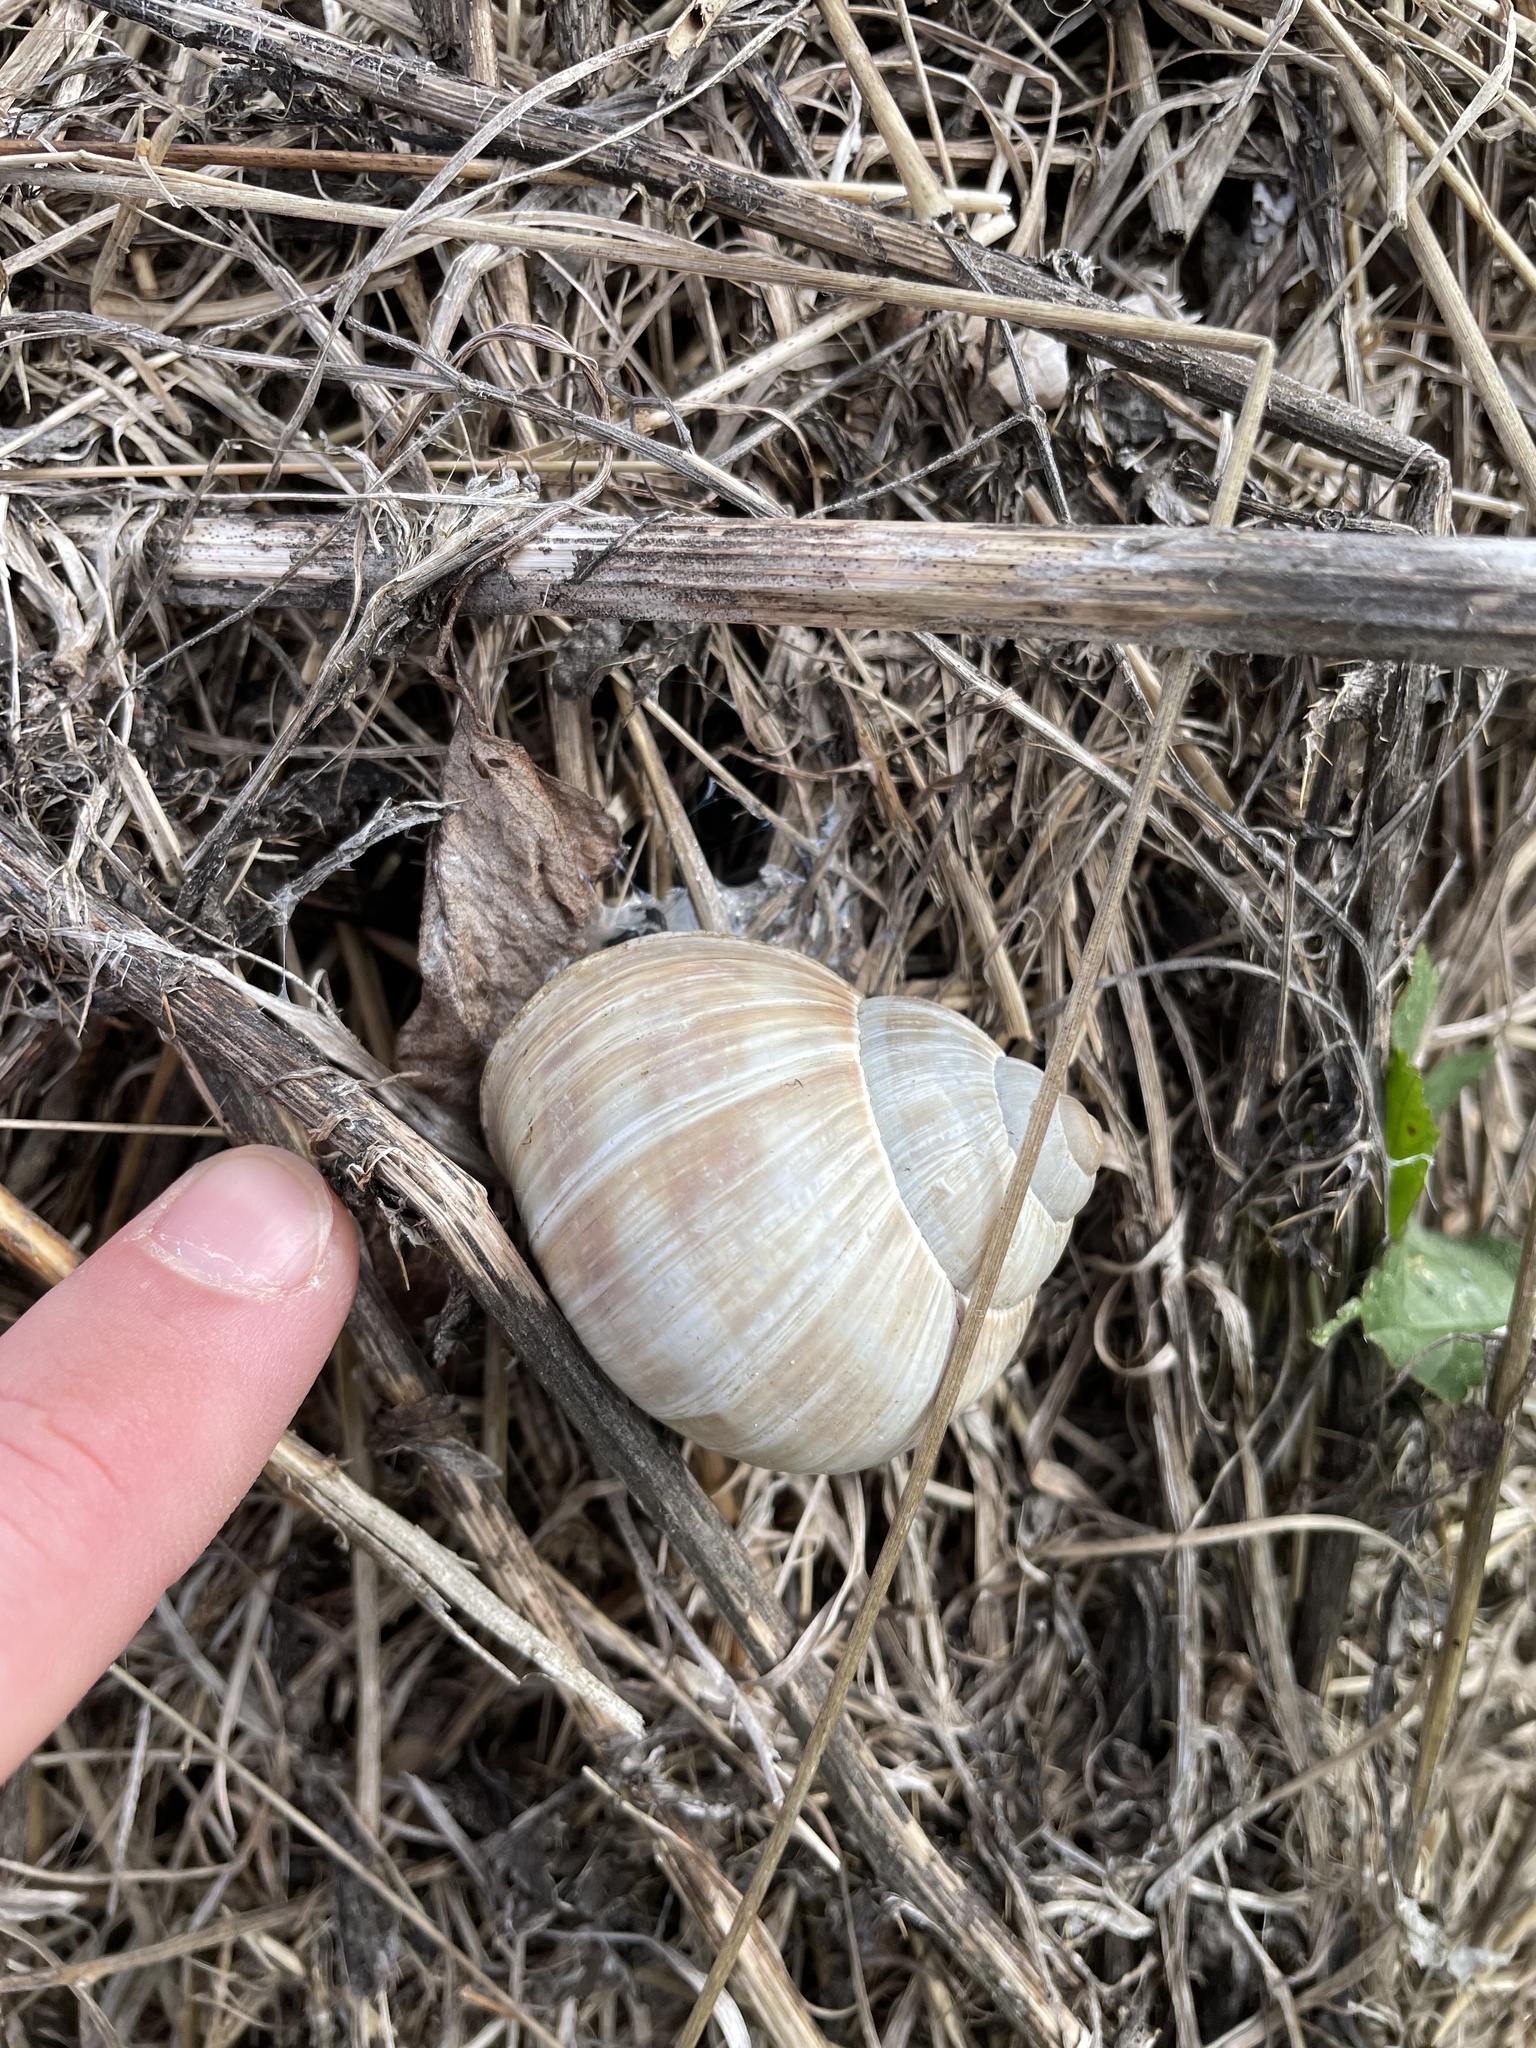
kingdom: Animalia
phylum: Mollusca
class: Gastropoda
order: Stylommatophora
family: Helicidae
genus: Helix
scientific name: Helix pomatia
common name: Roman snail
